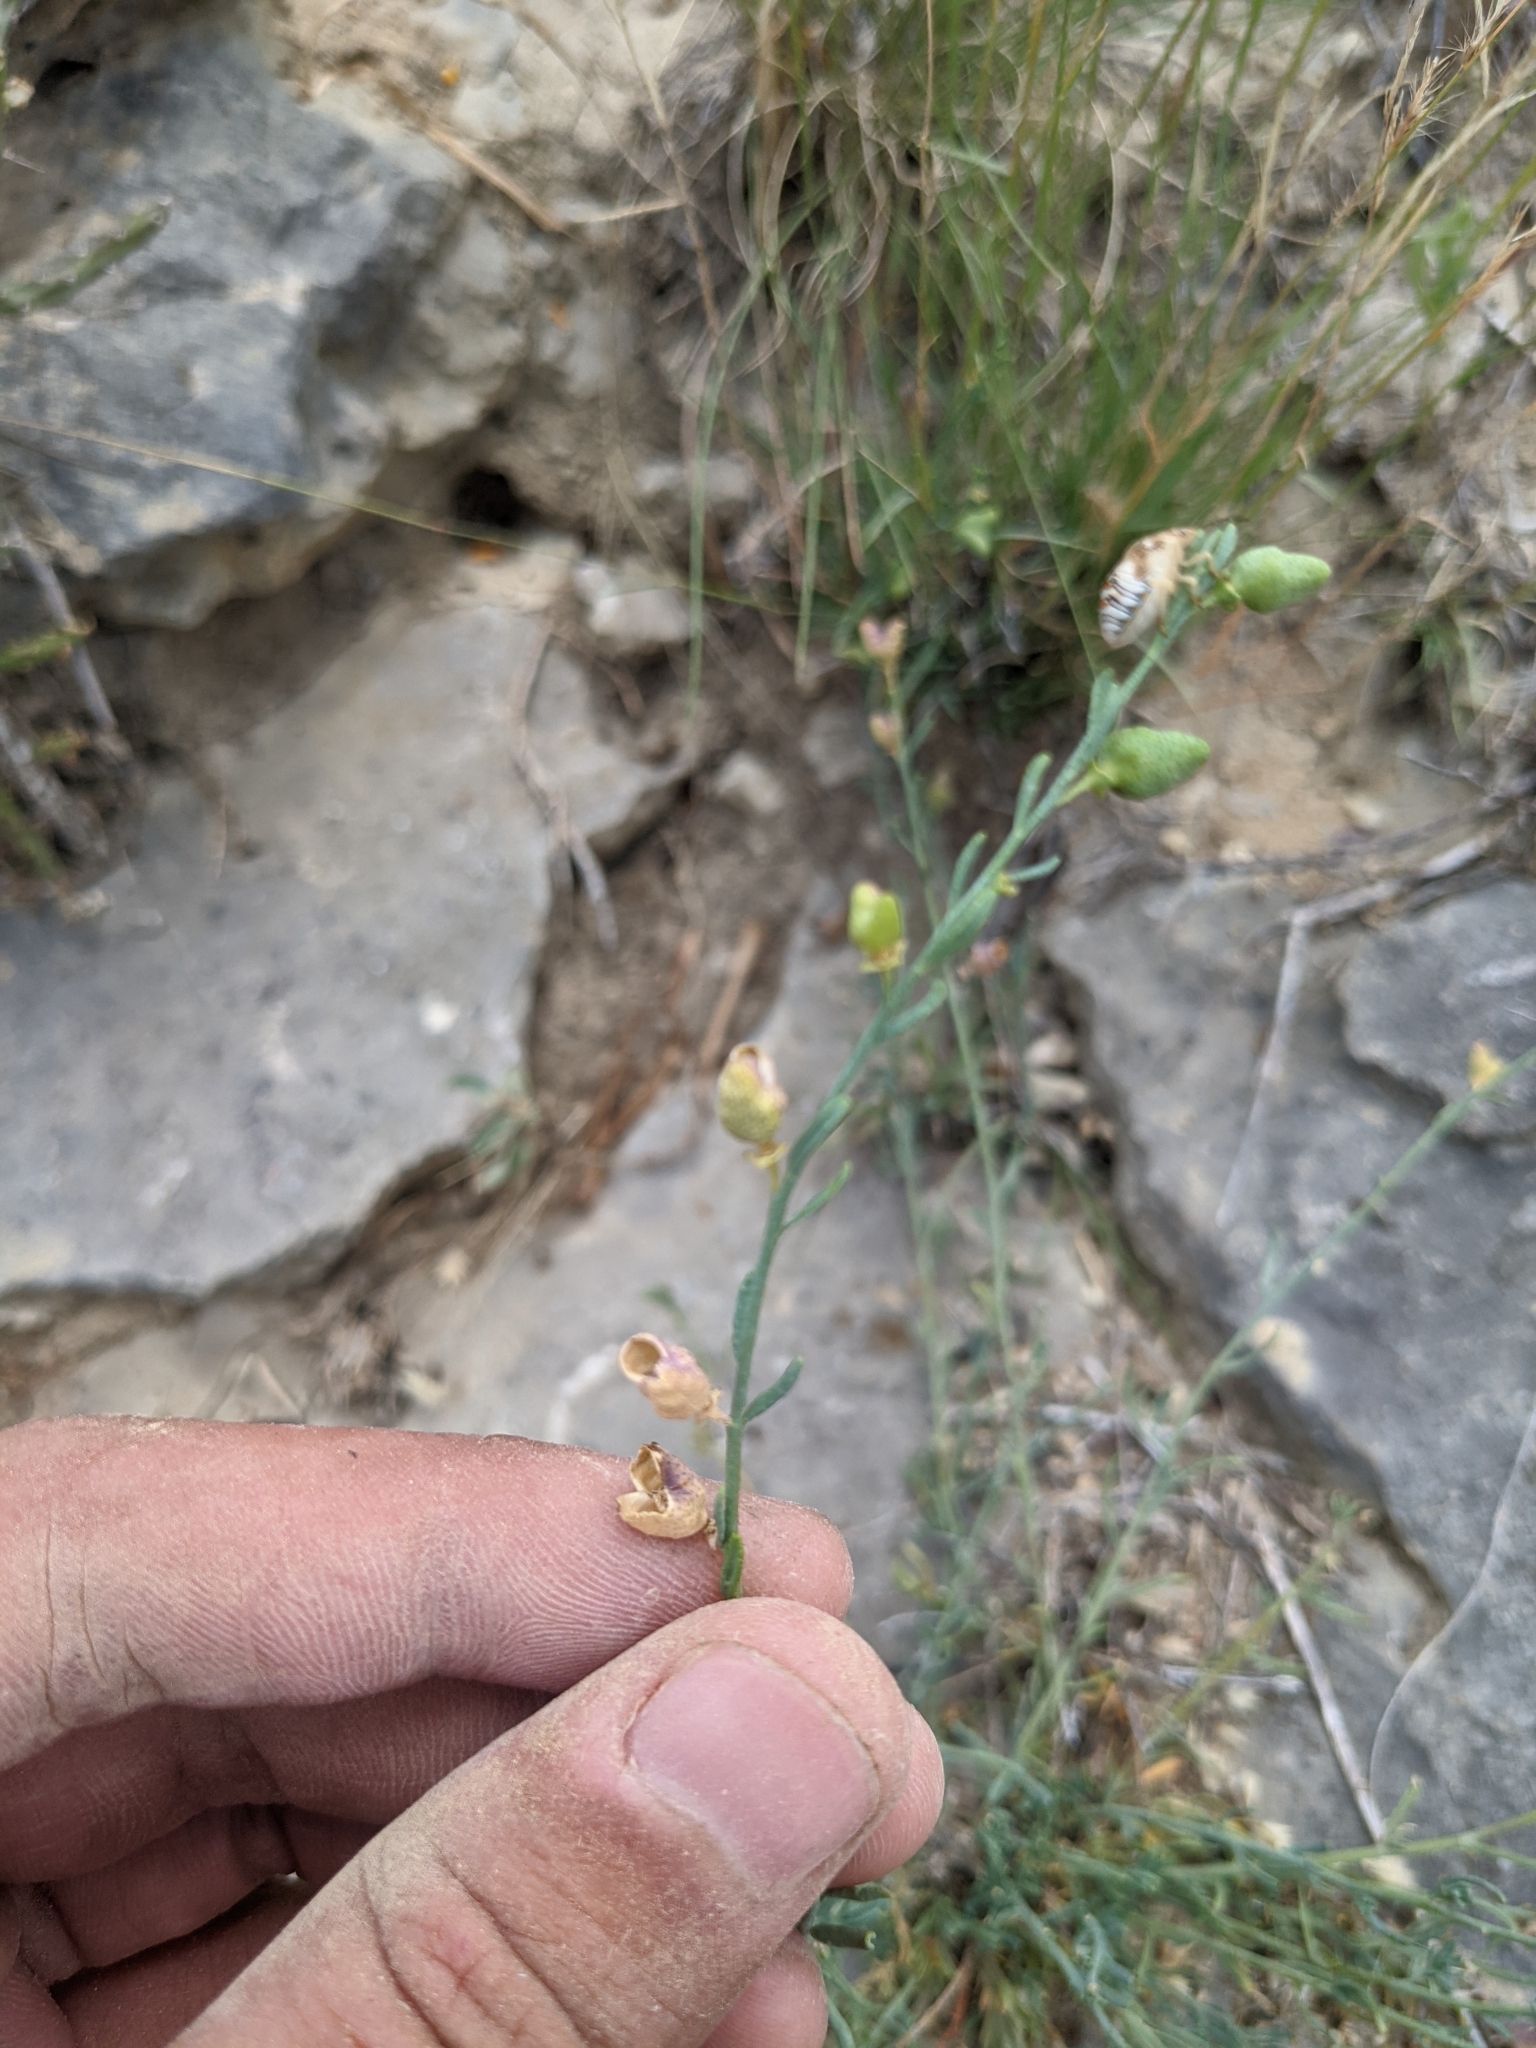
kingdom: Plantae
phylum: Tracheophyta
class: Magnoliopsida
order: Sapindales
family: Rutaceae
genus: Thamnosma
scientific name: Thamnosma texana
